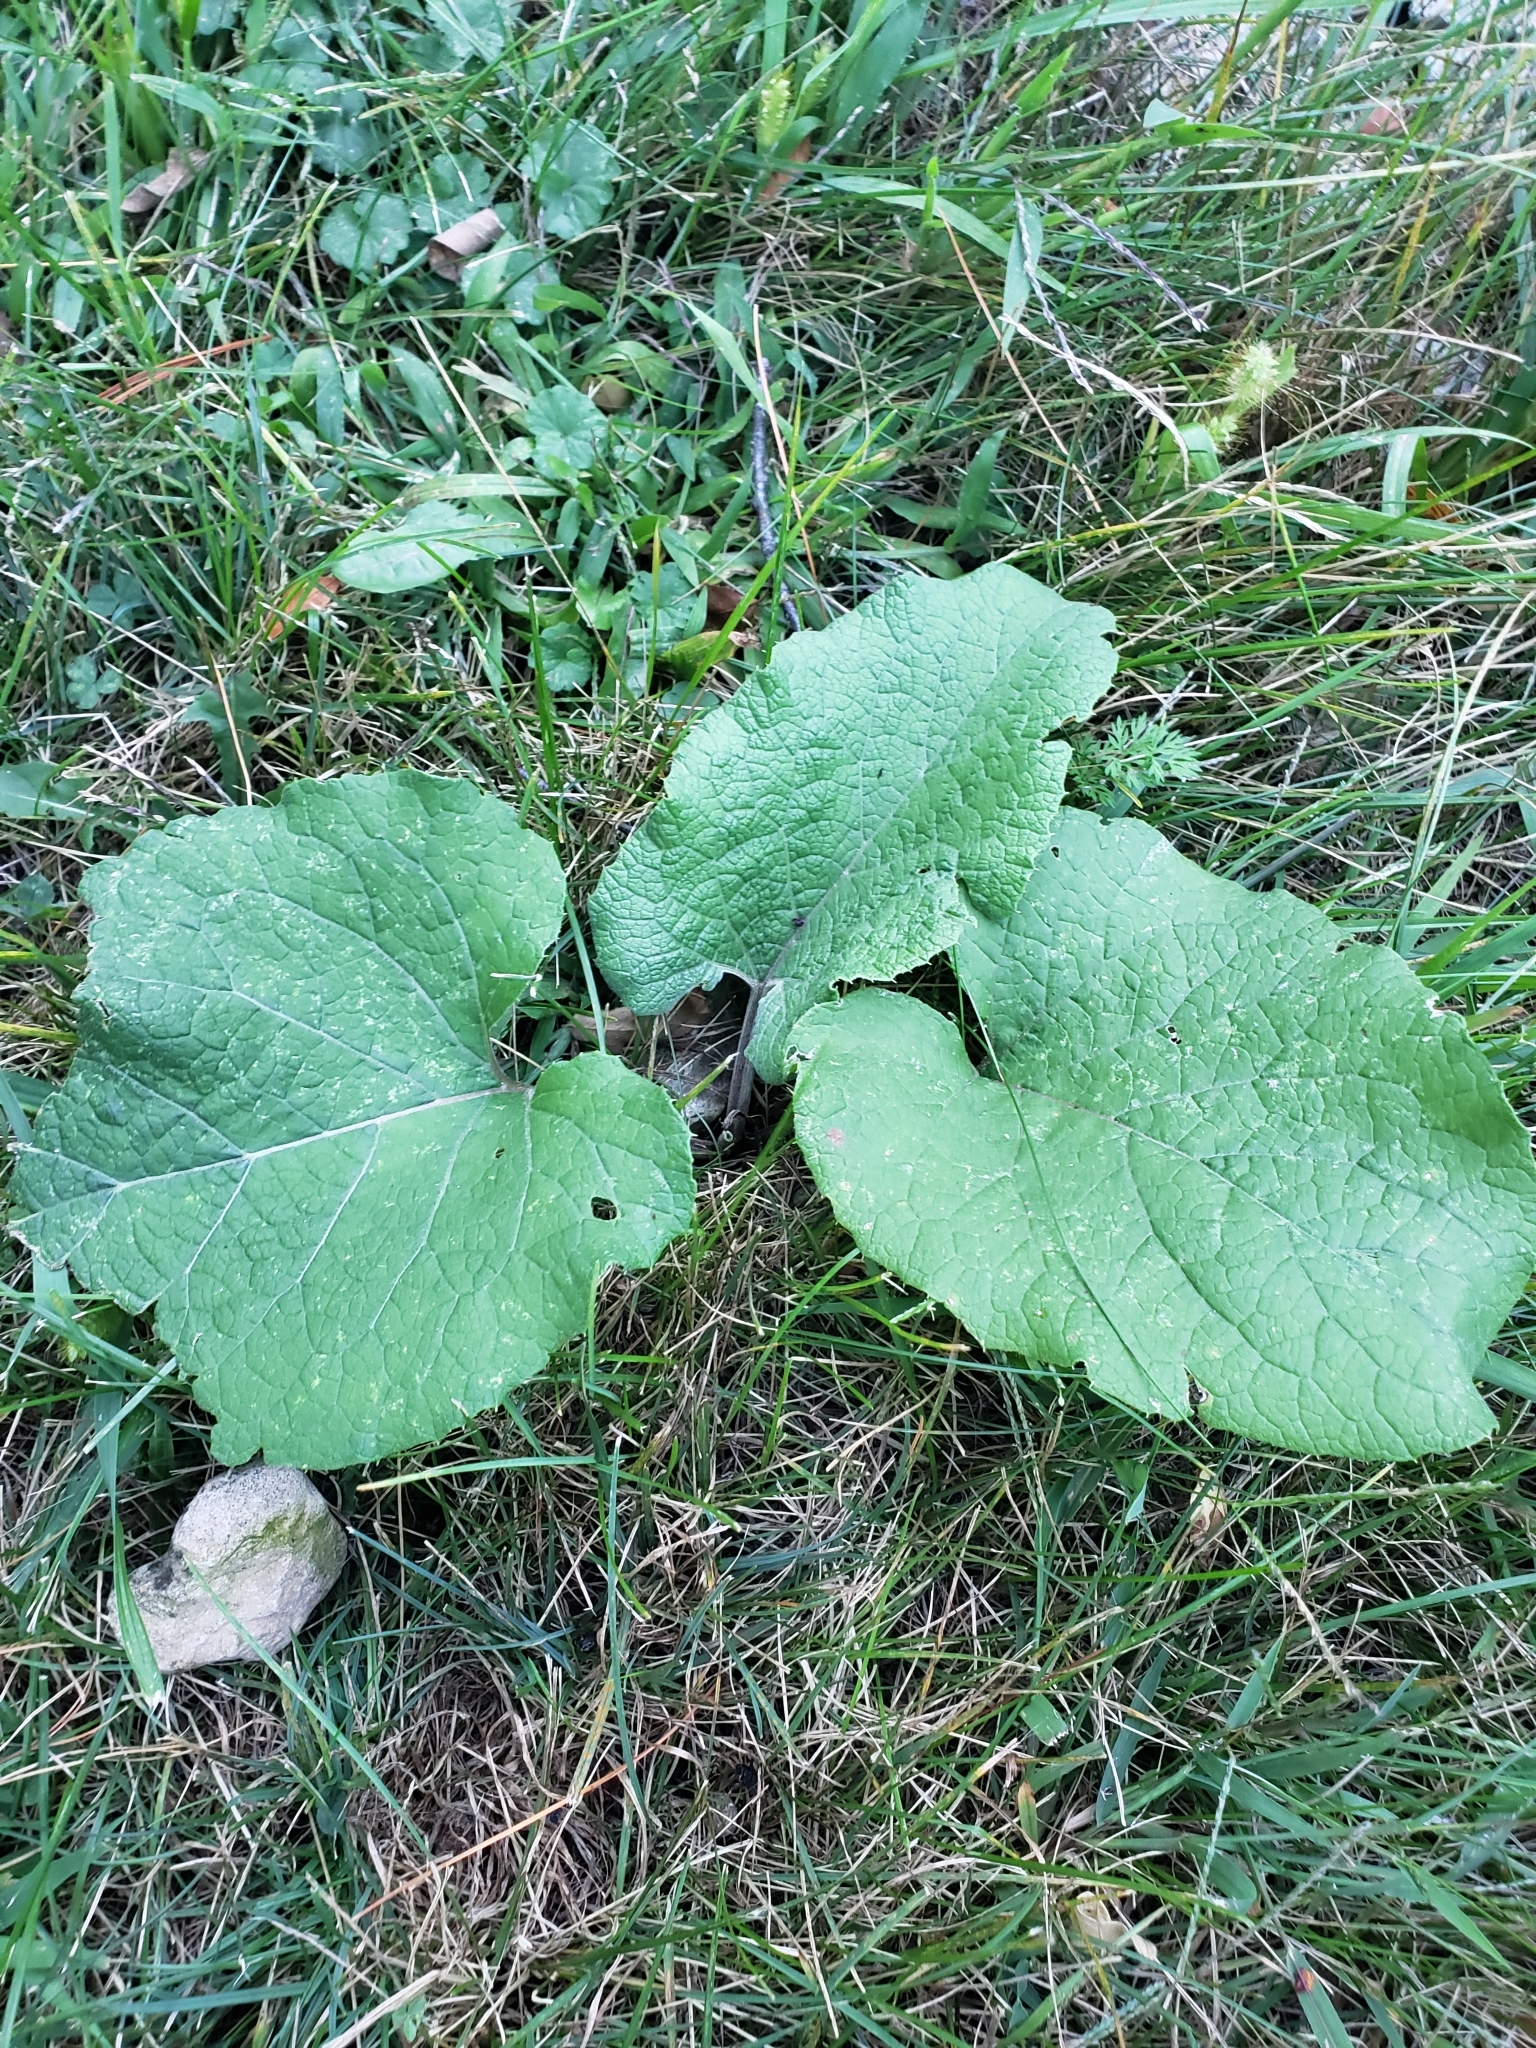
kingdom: Plantae
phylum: Tracheophyta
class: Magnoliopsida
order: Asterales
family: Asteraceae
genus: Arctium
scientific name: Arctium
